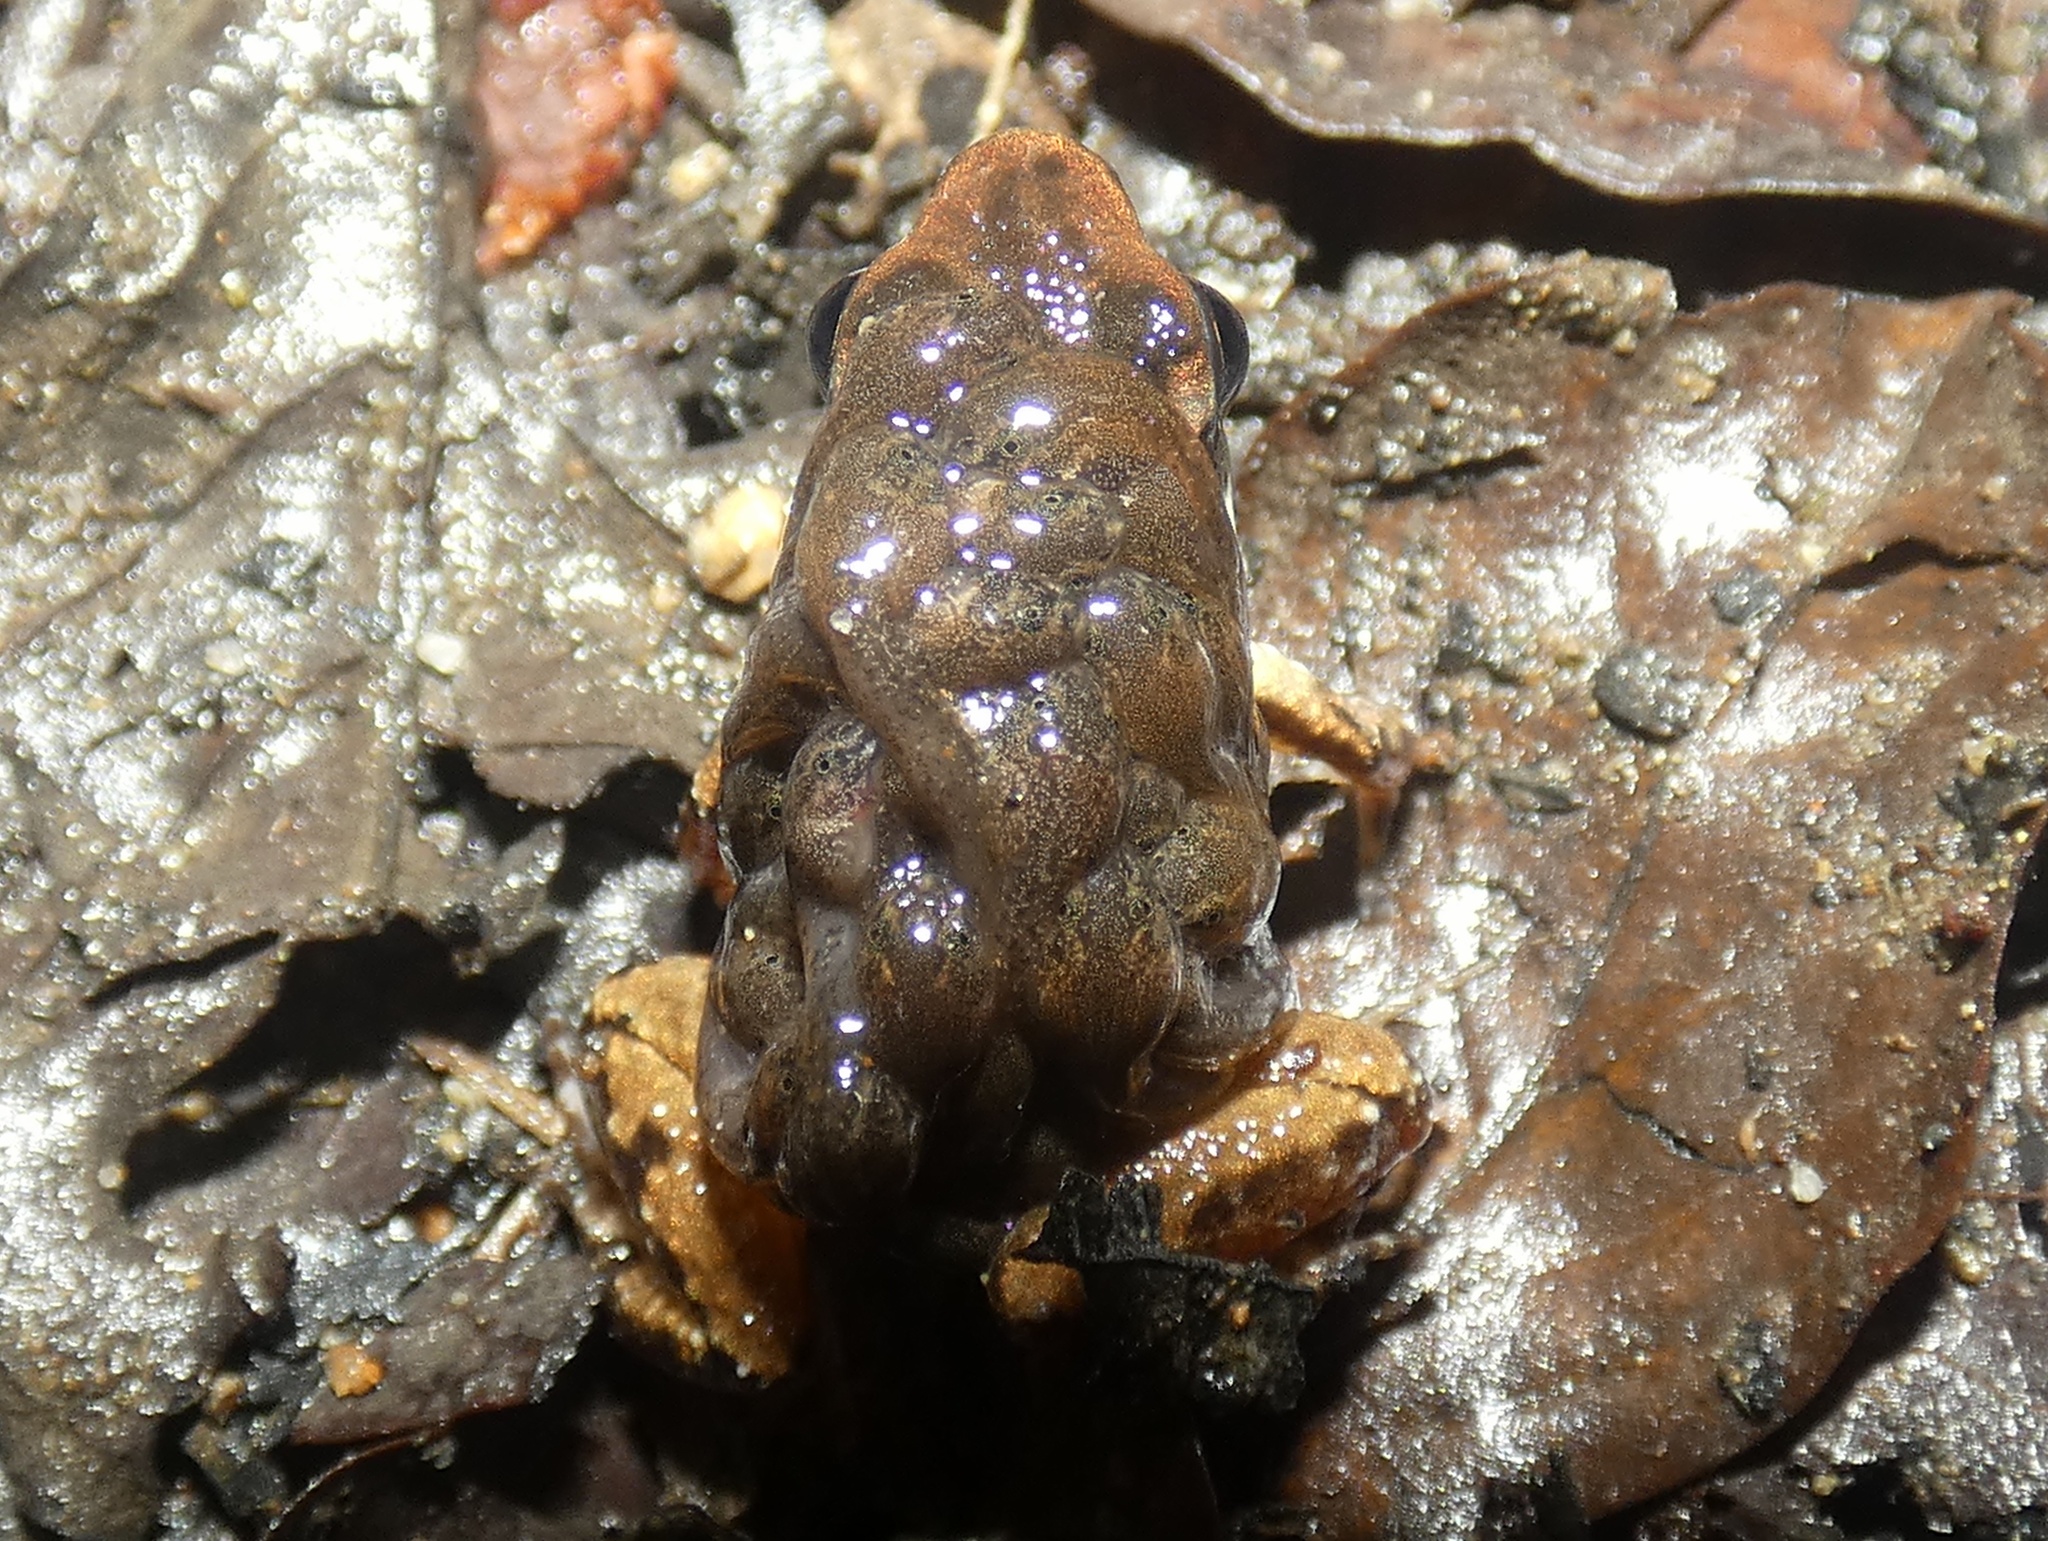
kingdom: Animalia
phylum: Chordata
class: Amphibia
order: Anura
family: Dendrobatidae
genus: Colostethus
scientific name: Colostethus pratti
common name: Pratt's rocket frog
